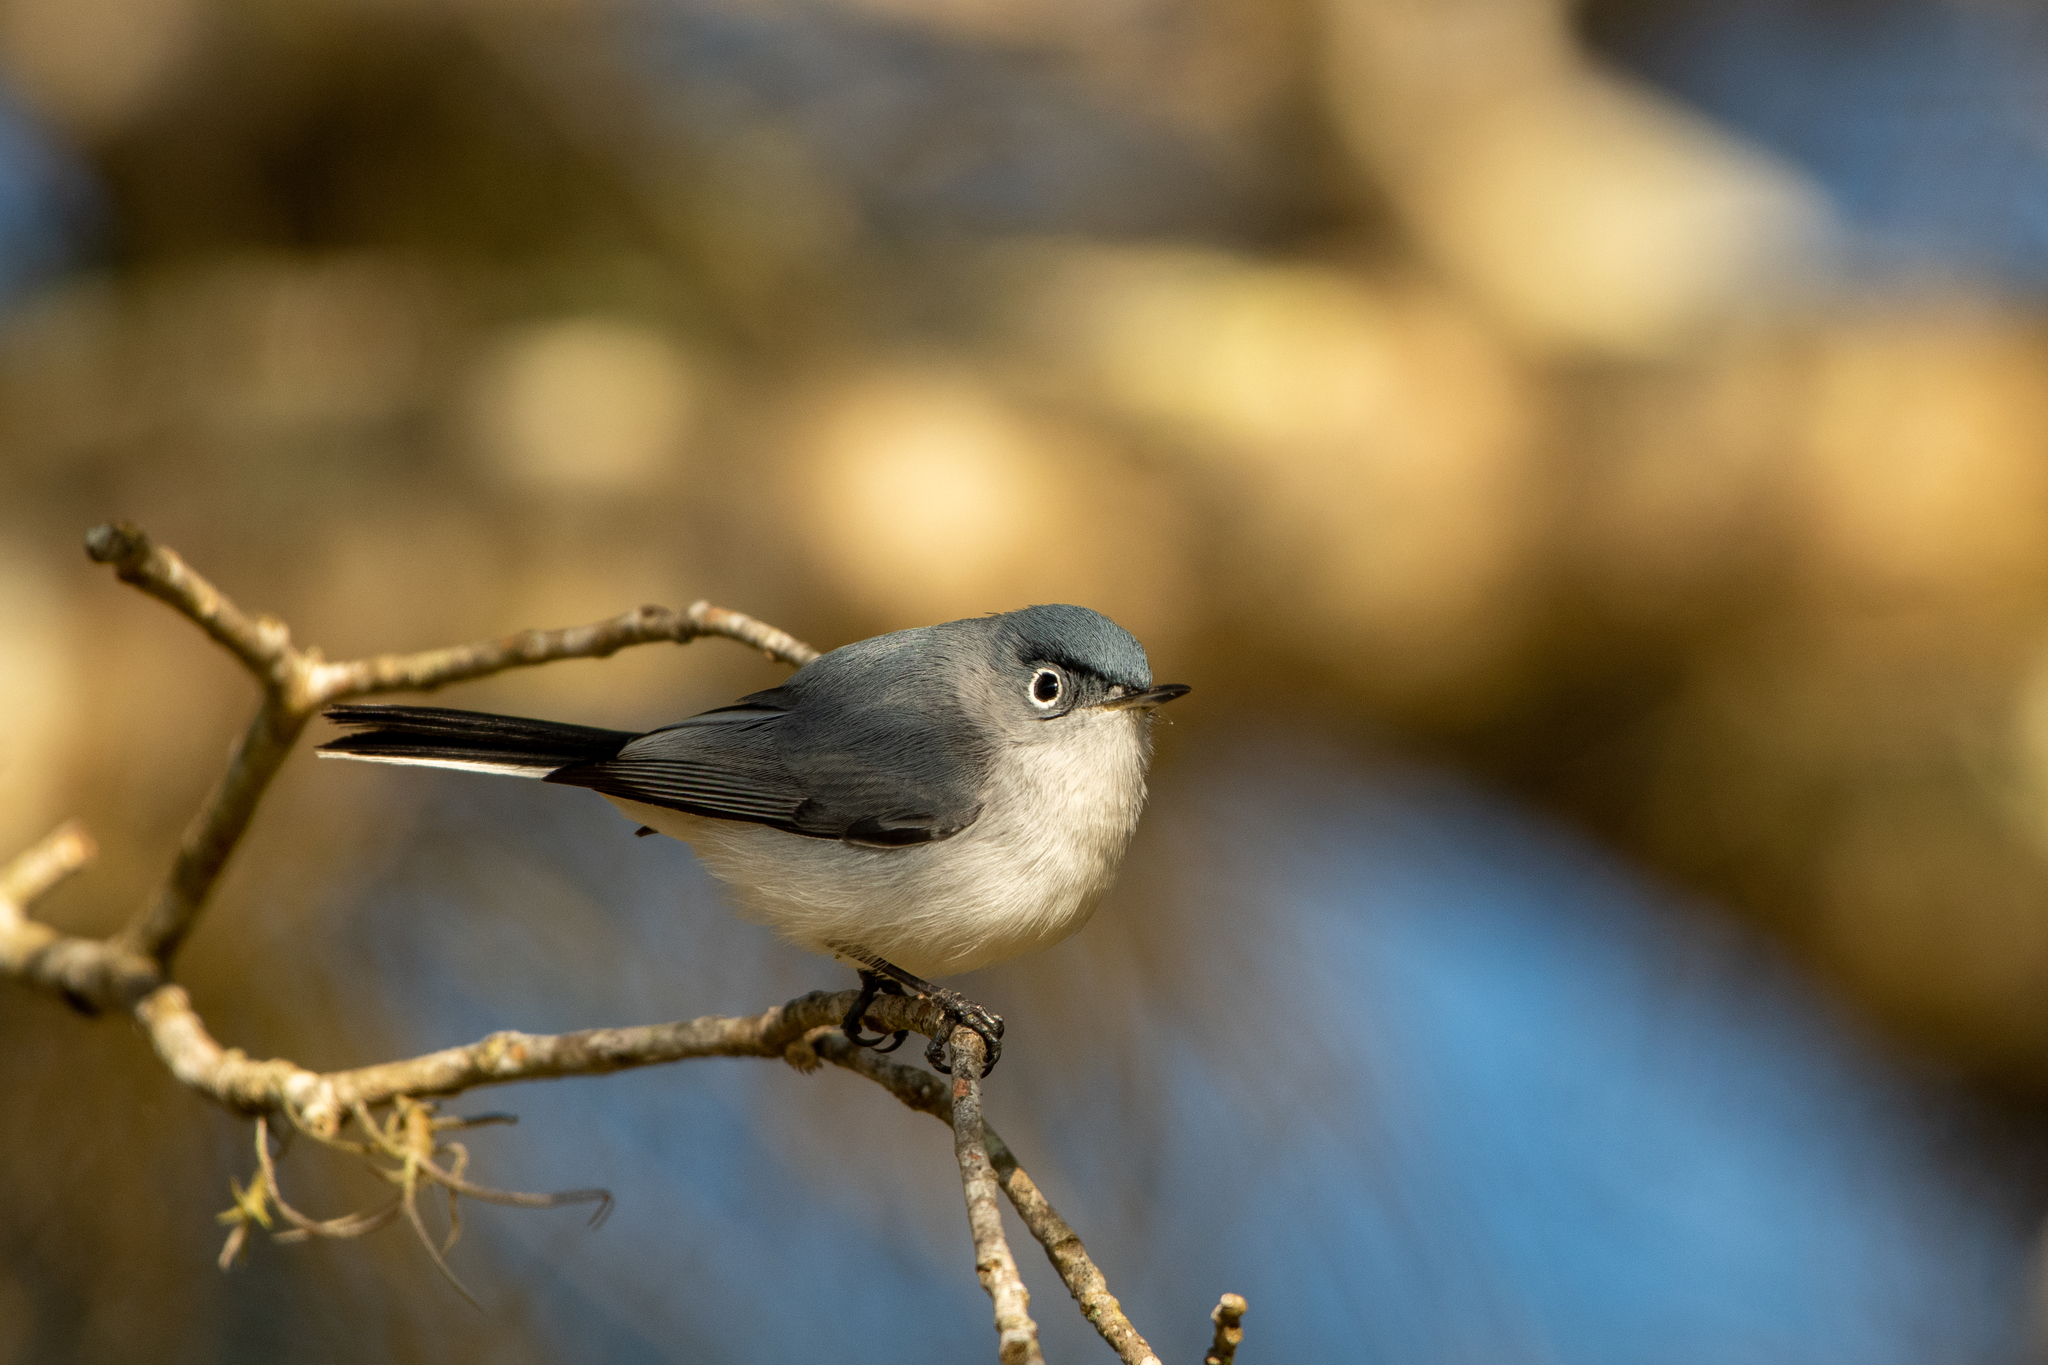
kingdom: Animalia
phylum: Chordata
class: Aves
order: Passeriformes
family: Polioptilidae
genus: Polioptila
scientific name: Polioptila caerulea
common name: Blue-gray gnatcatcher
